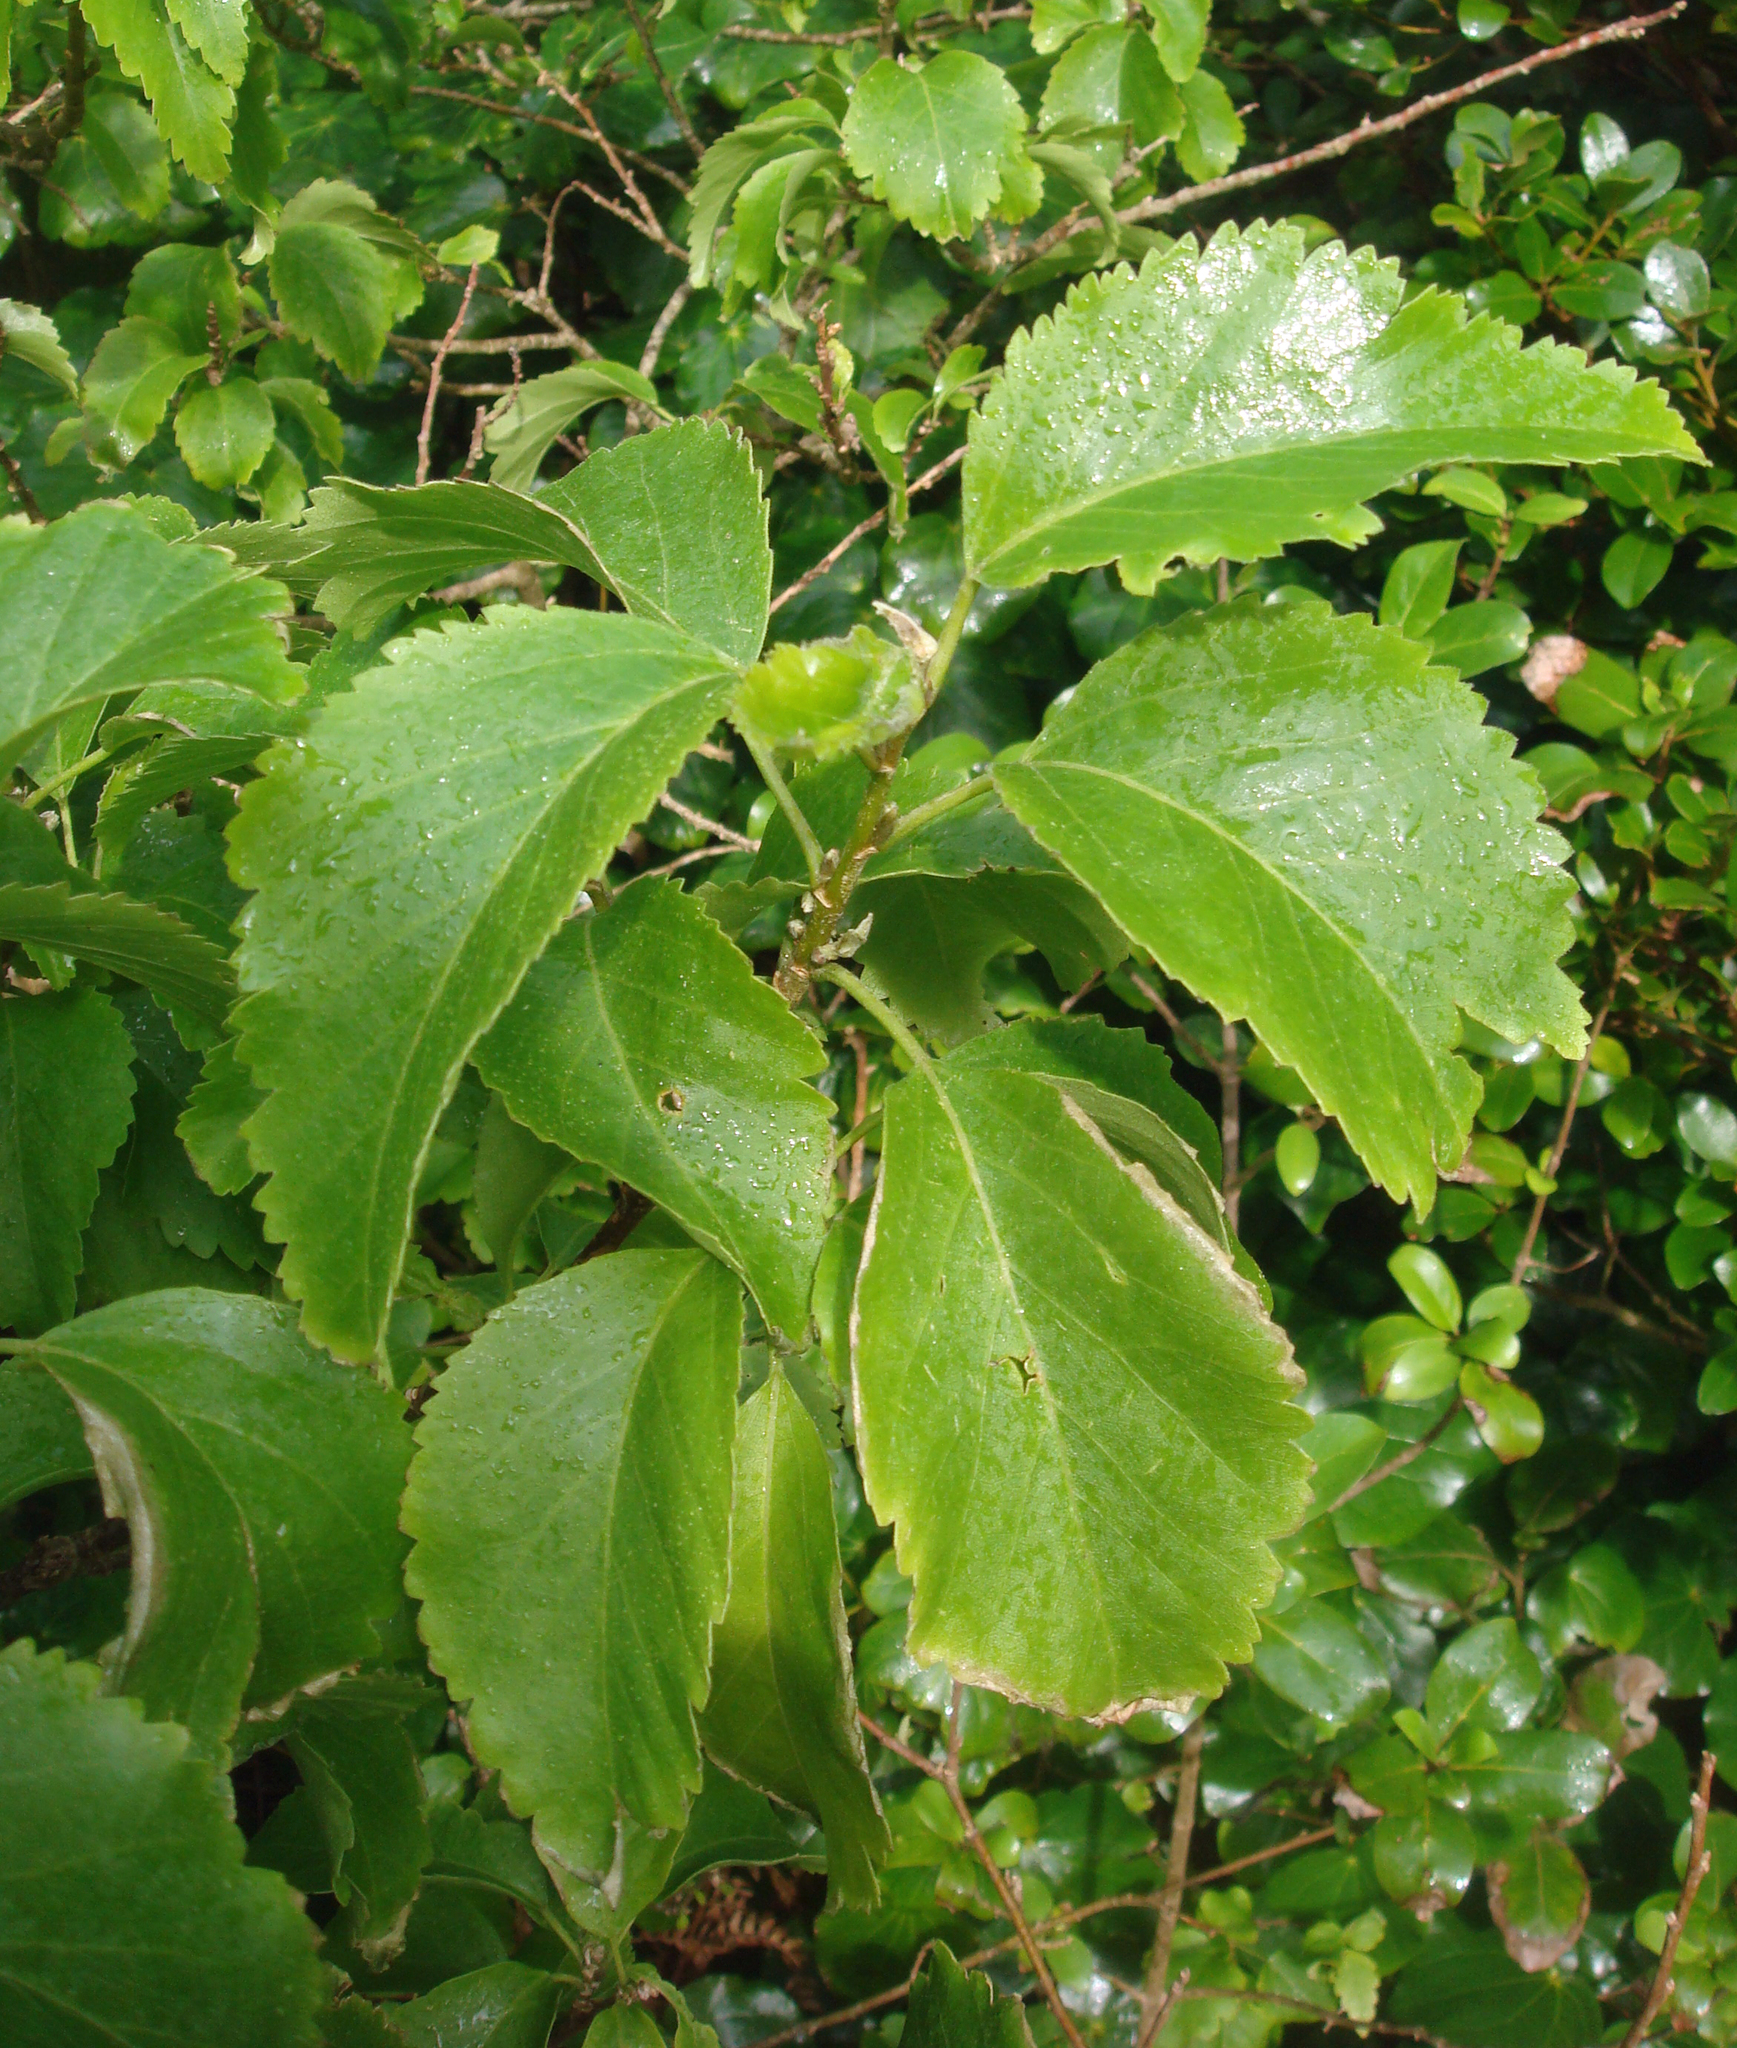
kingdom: Plantae
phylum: Tracheophyta
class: Magnoliopsida
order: Malvales
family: Malvaceae
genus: Plagianthus
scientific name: Plagianthus regius
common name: Manatu
